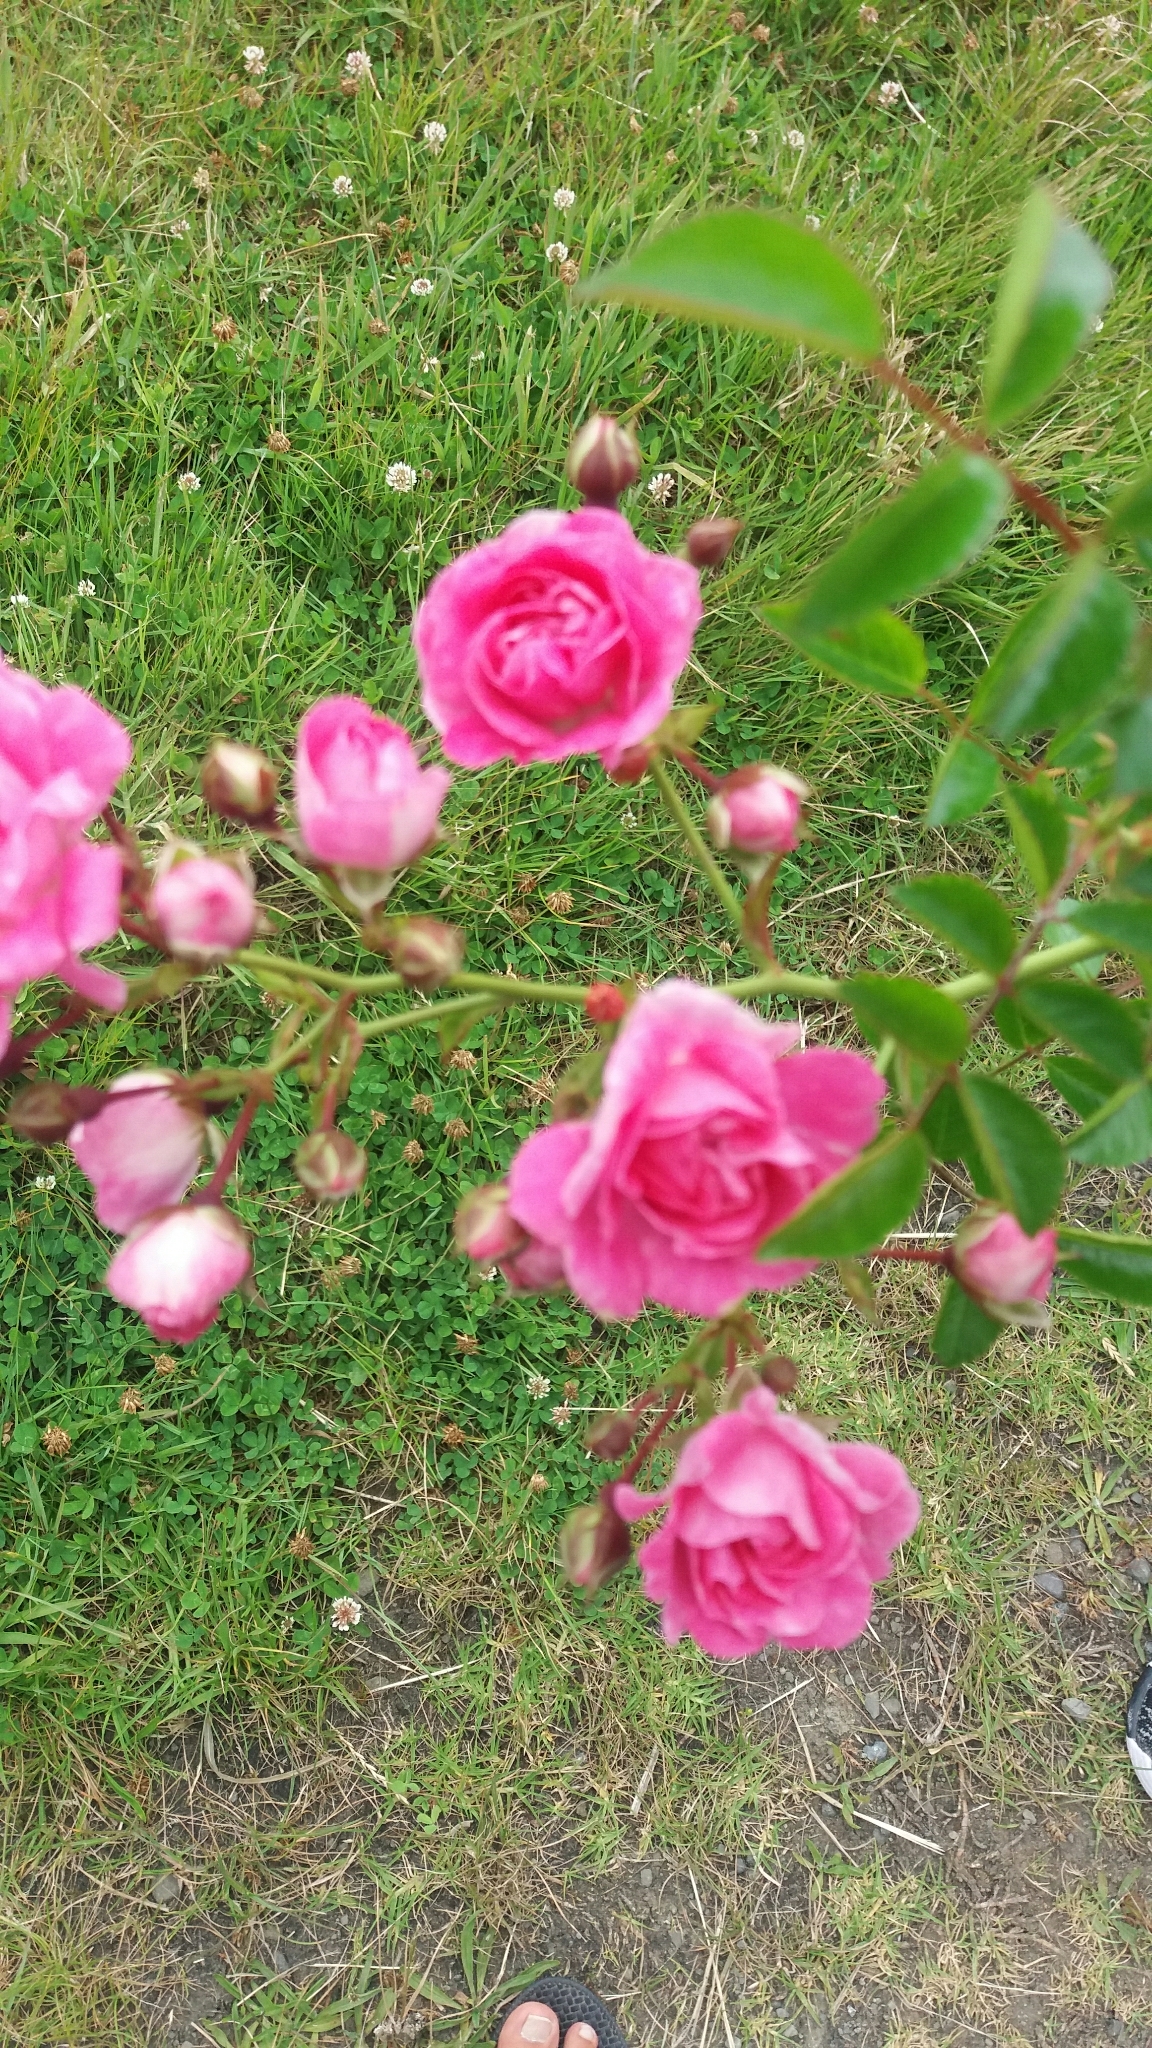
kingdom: Plantae
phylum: Tracheophyta
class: Magnoliopsida
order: Rosales
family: Rosaceae
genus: Rosa
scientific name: Rosa
